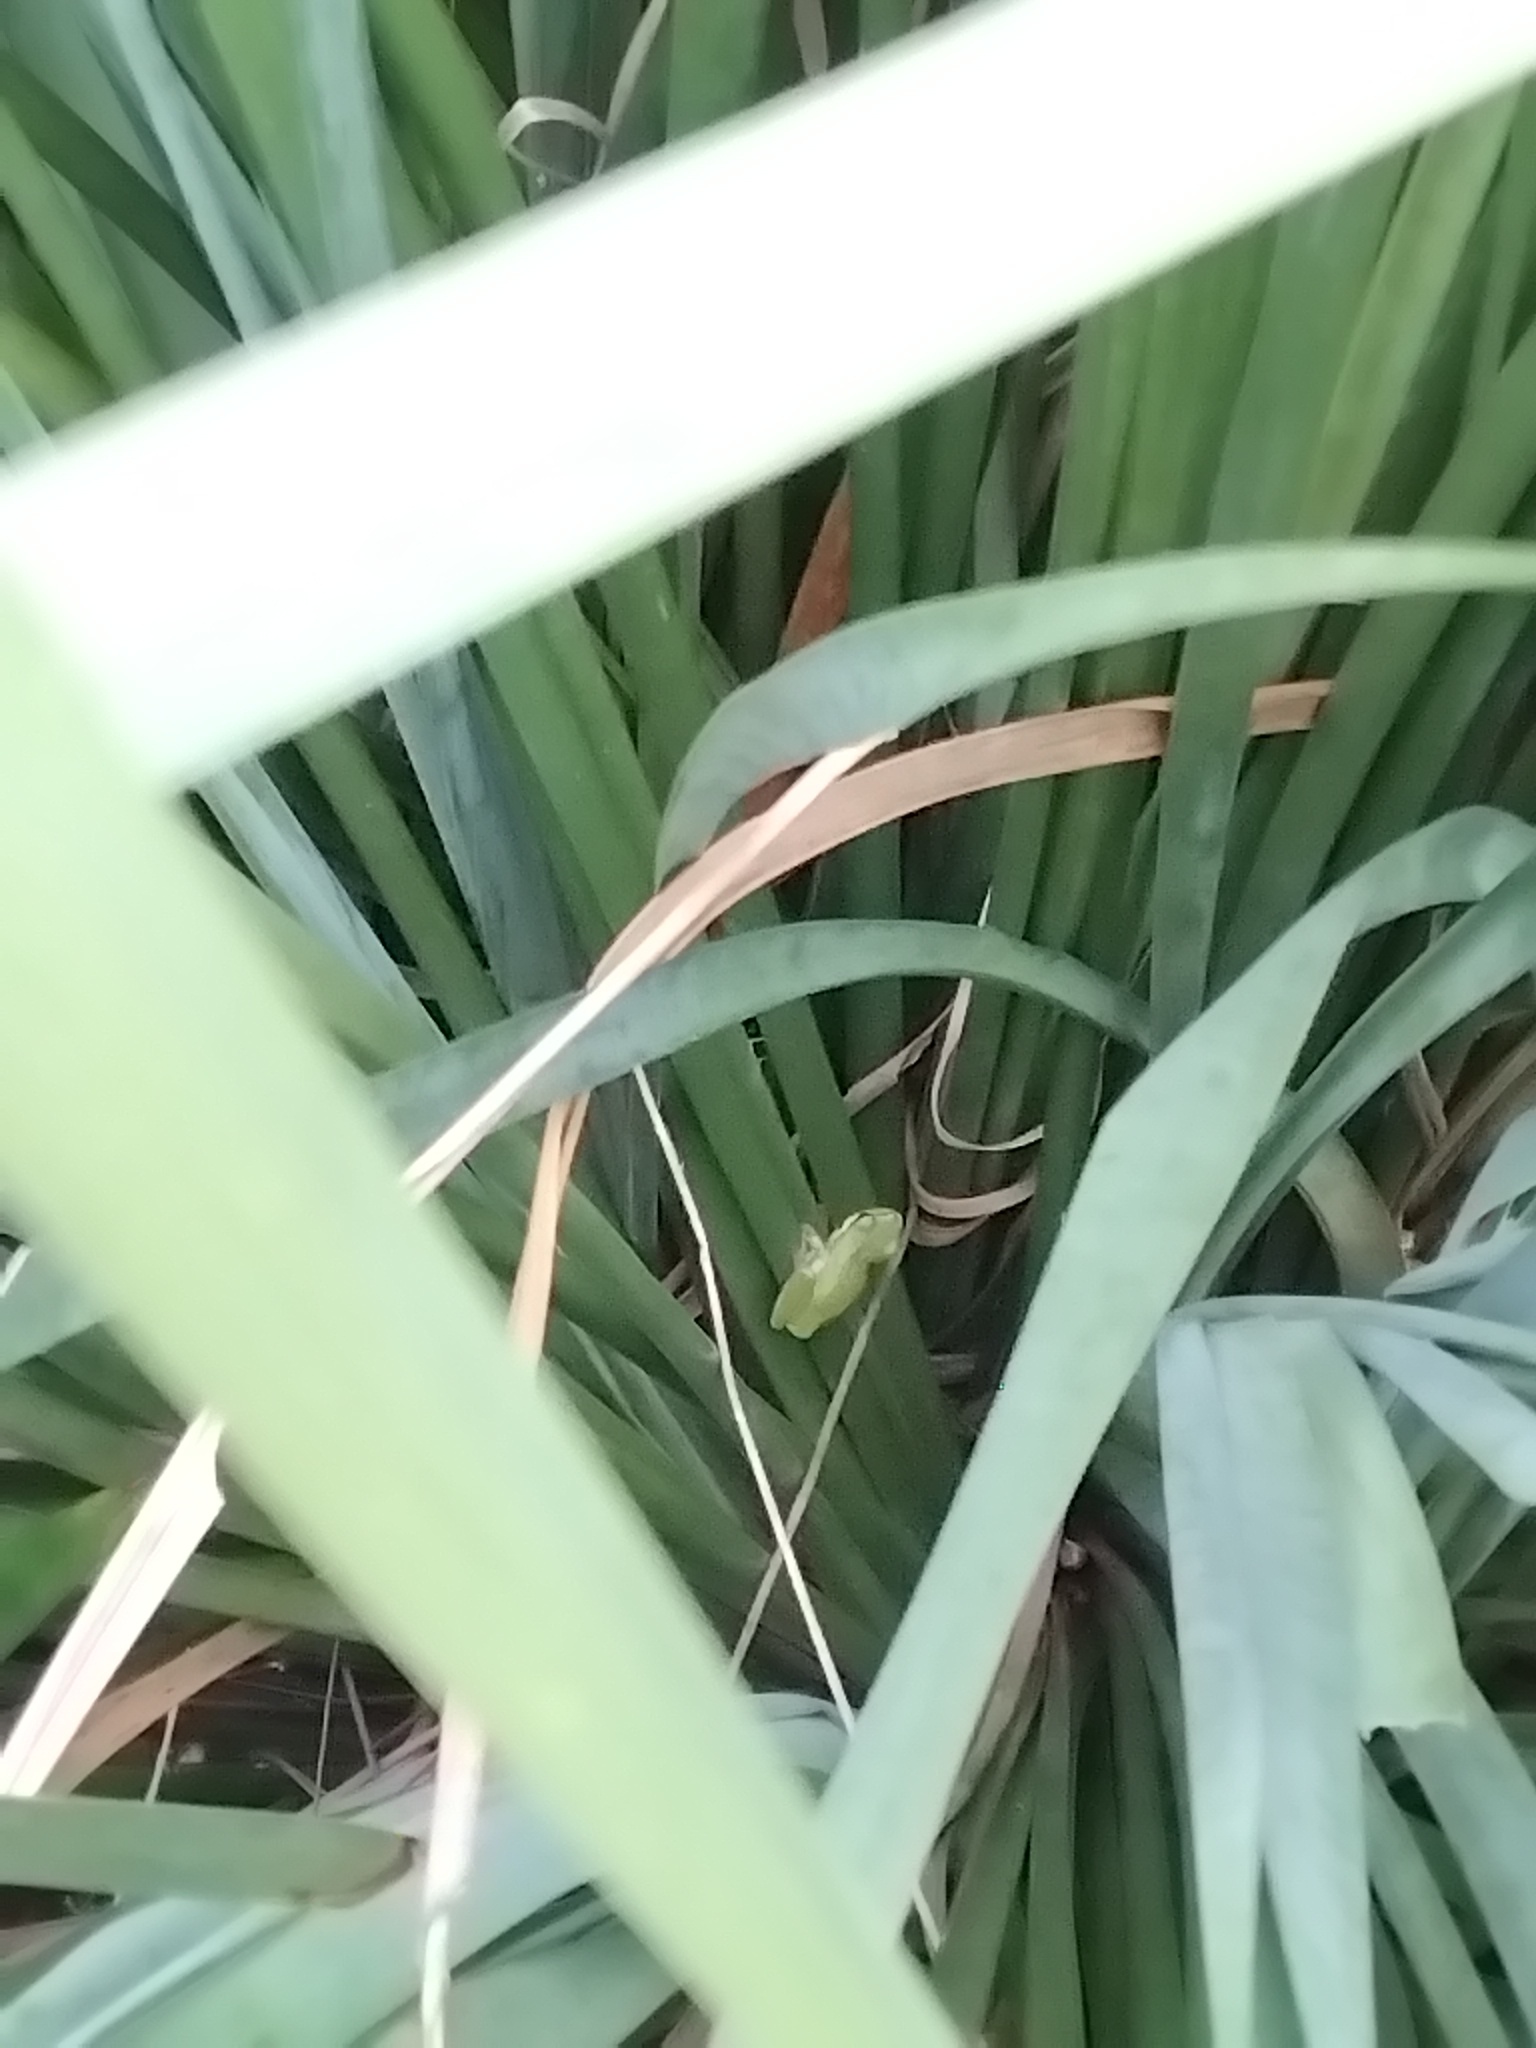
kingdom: Animalia
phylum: Chordata
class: Amphibia
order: Anura
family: Pelodryadidae
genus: Litoria
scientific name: Litoria fallax
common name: Eastern dwarf treefrog
